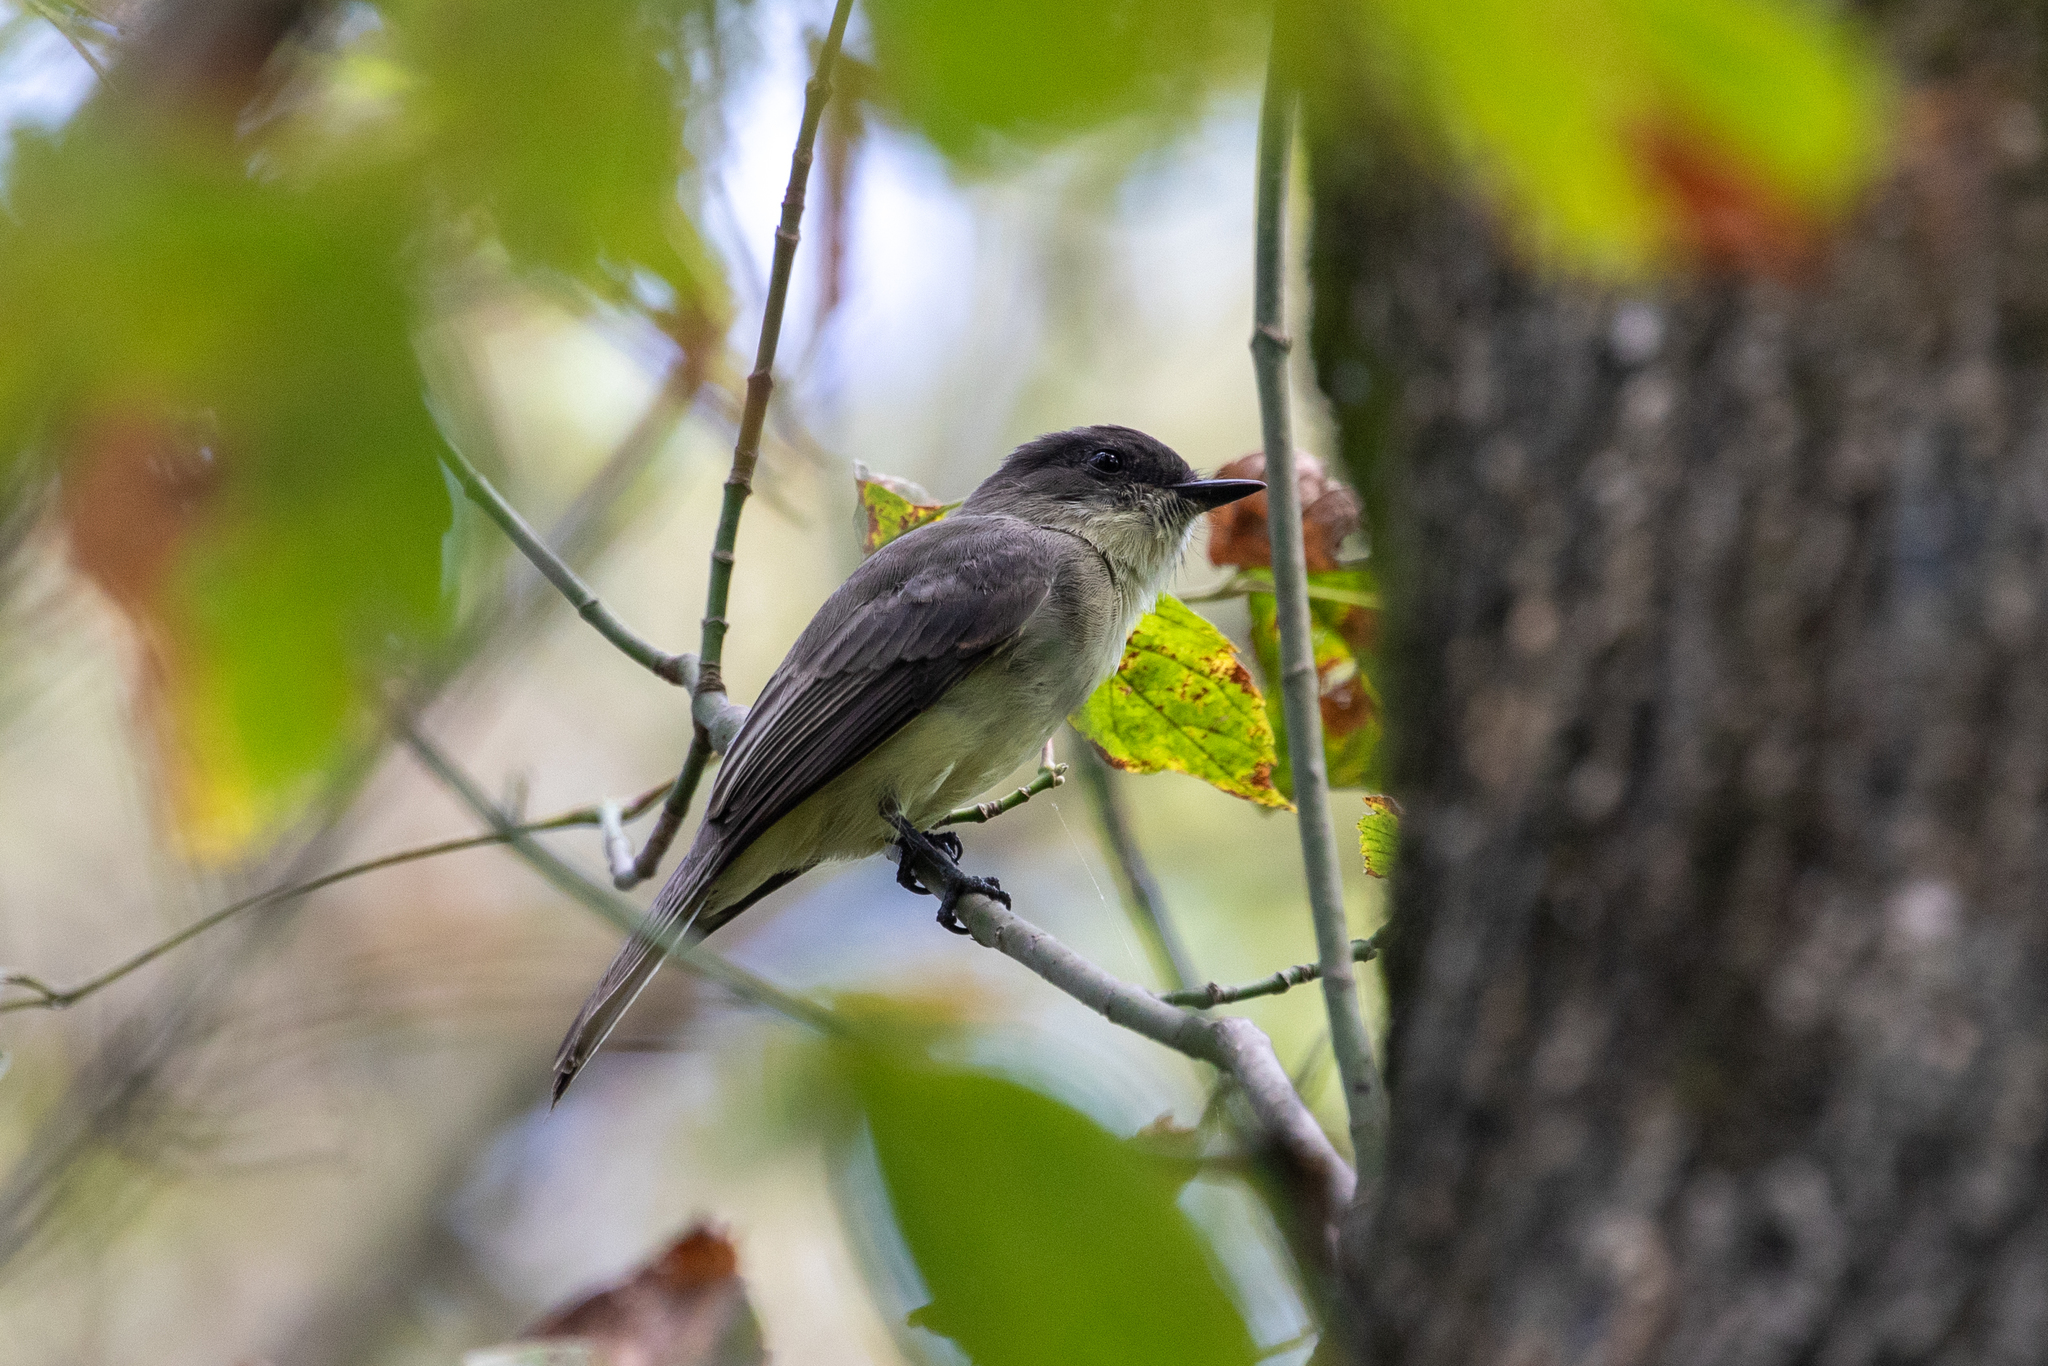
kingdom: Animalia
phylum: Chordata
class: Aves
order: Passeriformes
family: Tyrannidae
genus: Sayornis
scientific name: Sayornis phoebe
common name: Eastern phoebe
